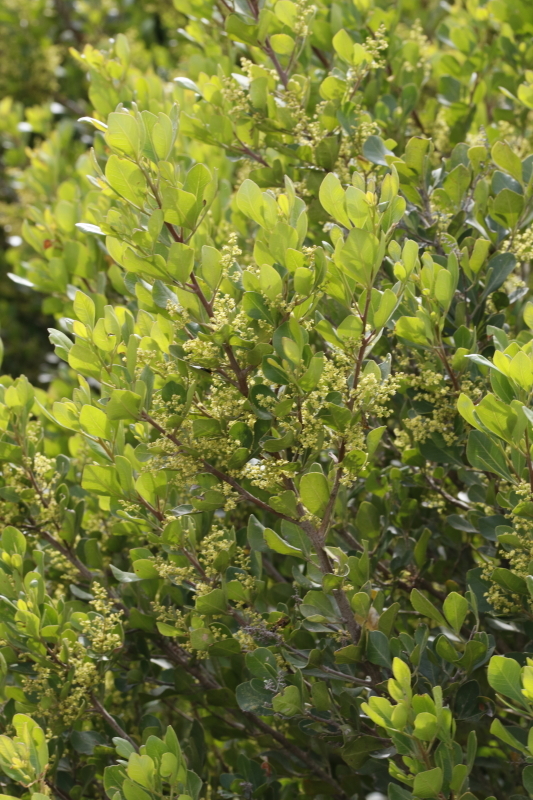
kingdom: Plantae
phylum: Tracheophyta
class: Magnoliopsida
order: Sapindales
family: Anacardiaceae
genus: Searsia
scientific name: Searsia lucida
